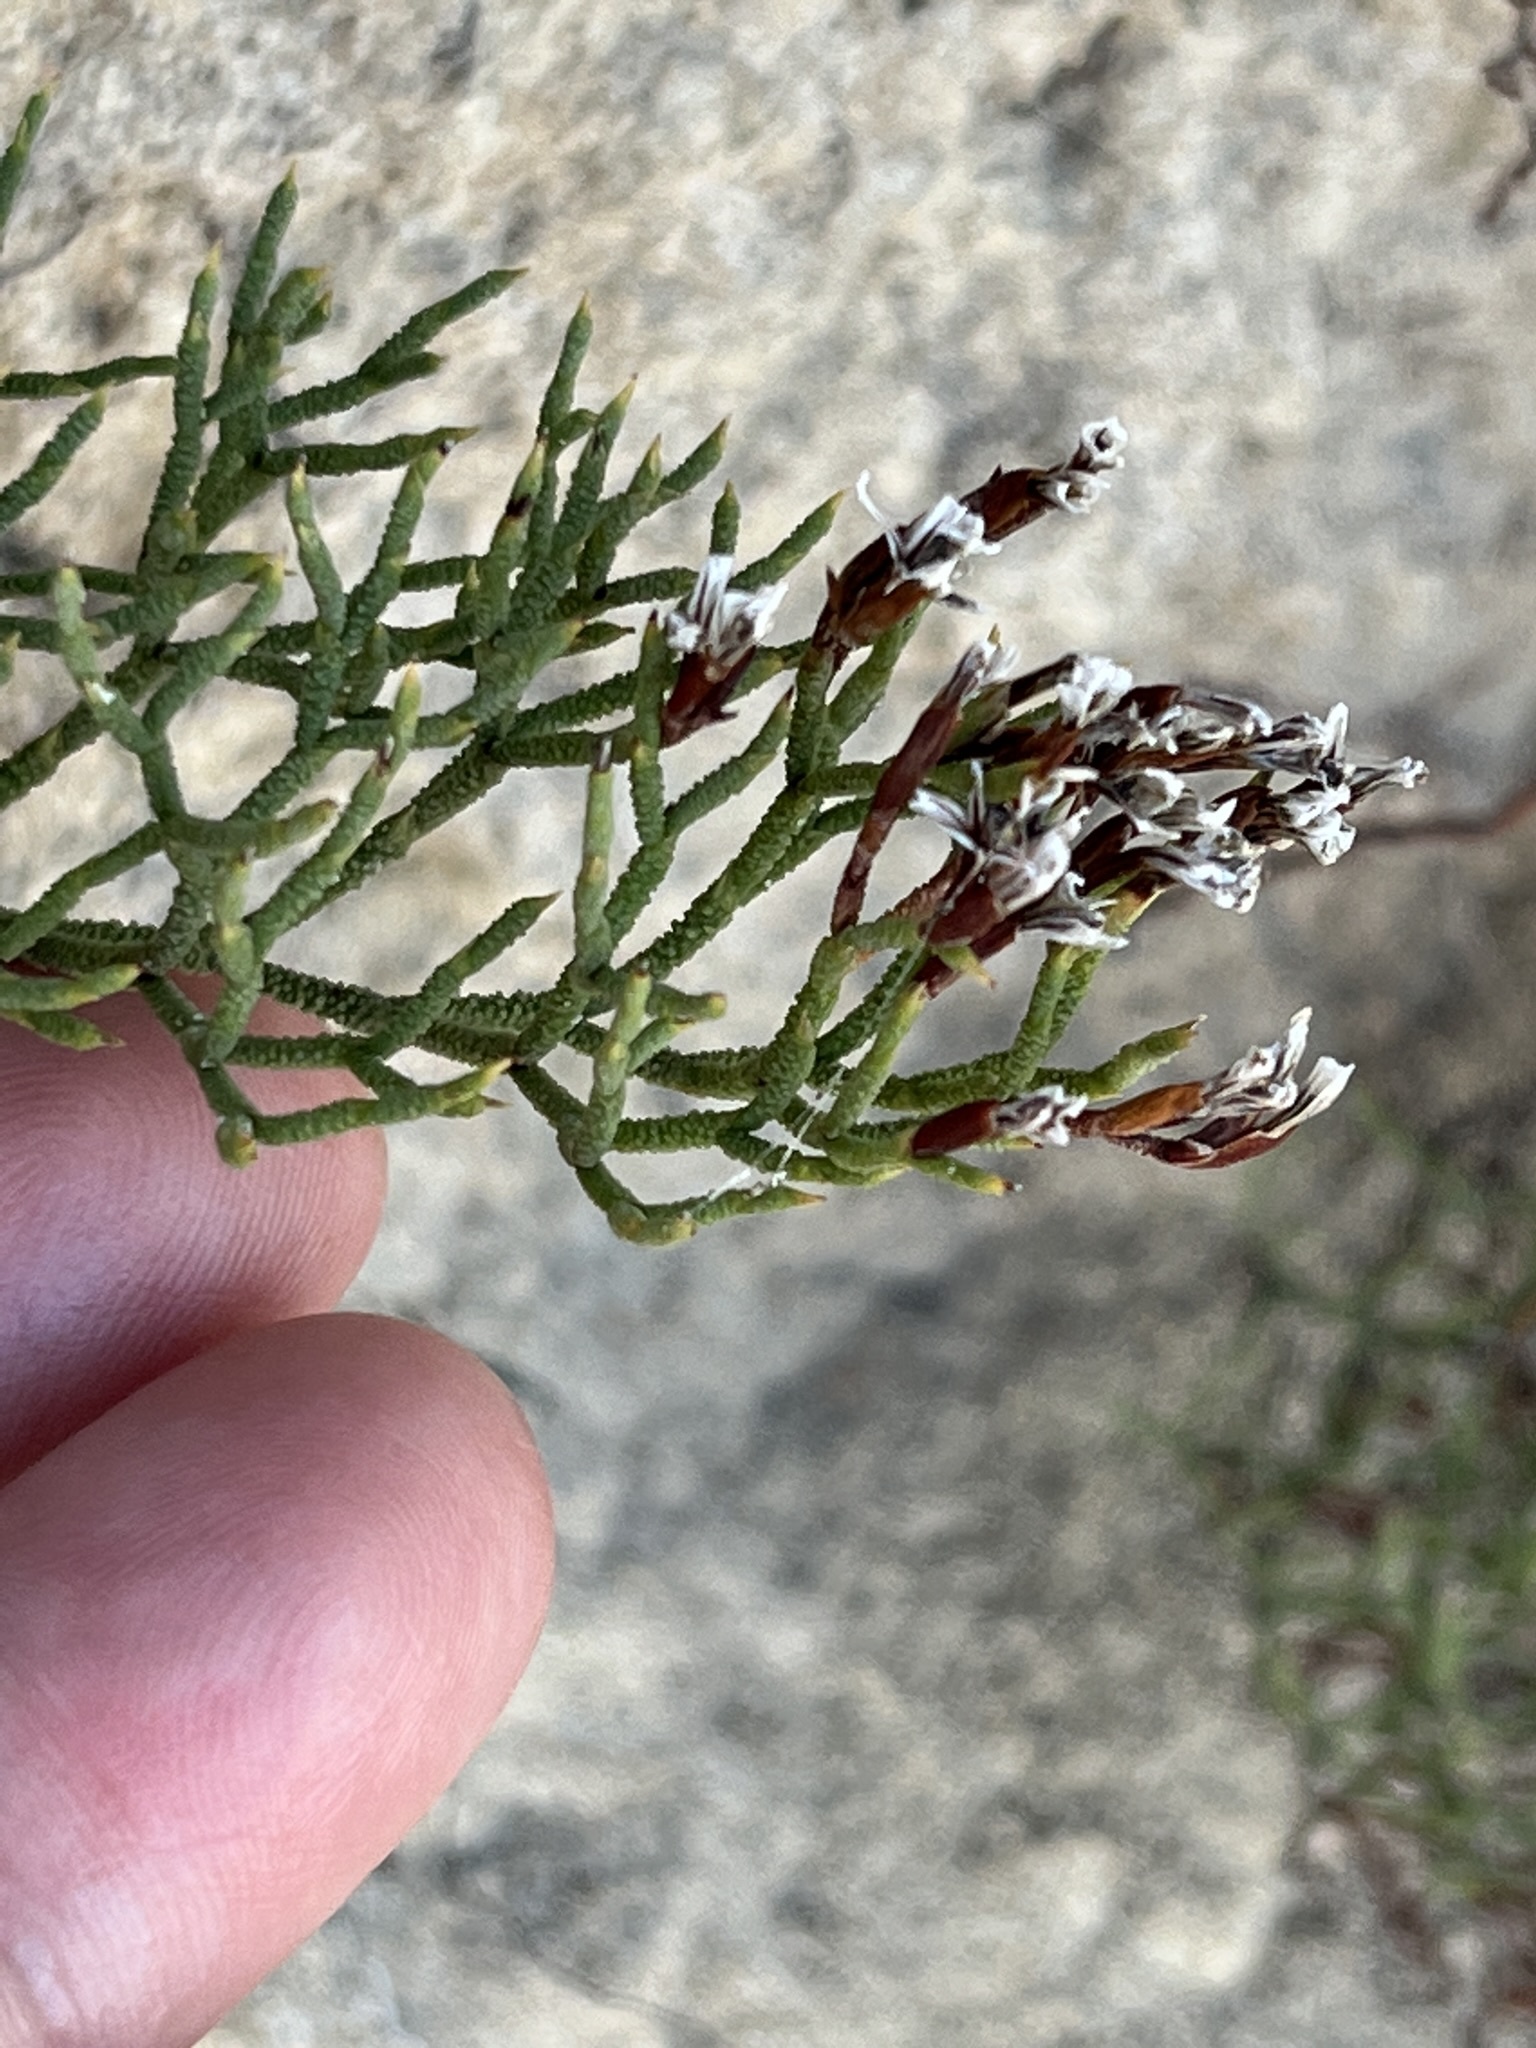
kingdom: Plantae
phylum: Tracheophyta
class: Magnoliopsida
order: Caryophyllales
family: Plumbaginaceae
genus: Limonium
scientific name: Limonium scabrum
